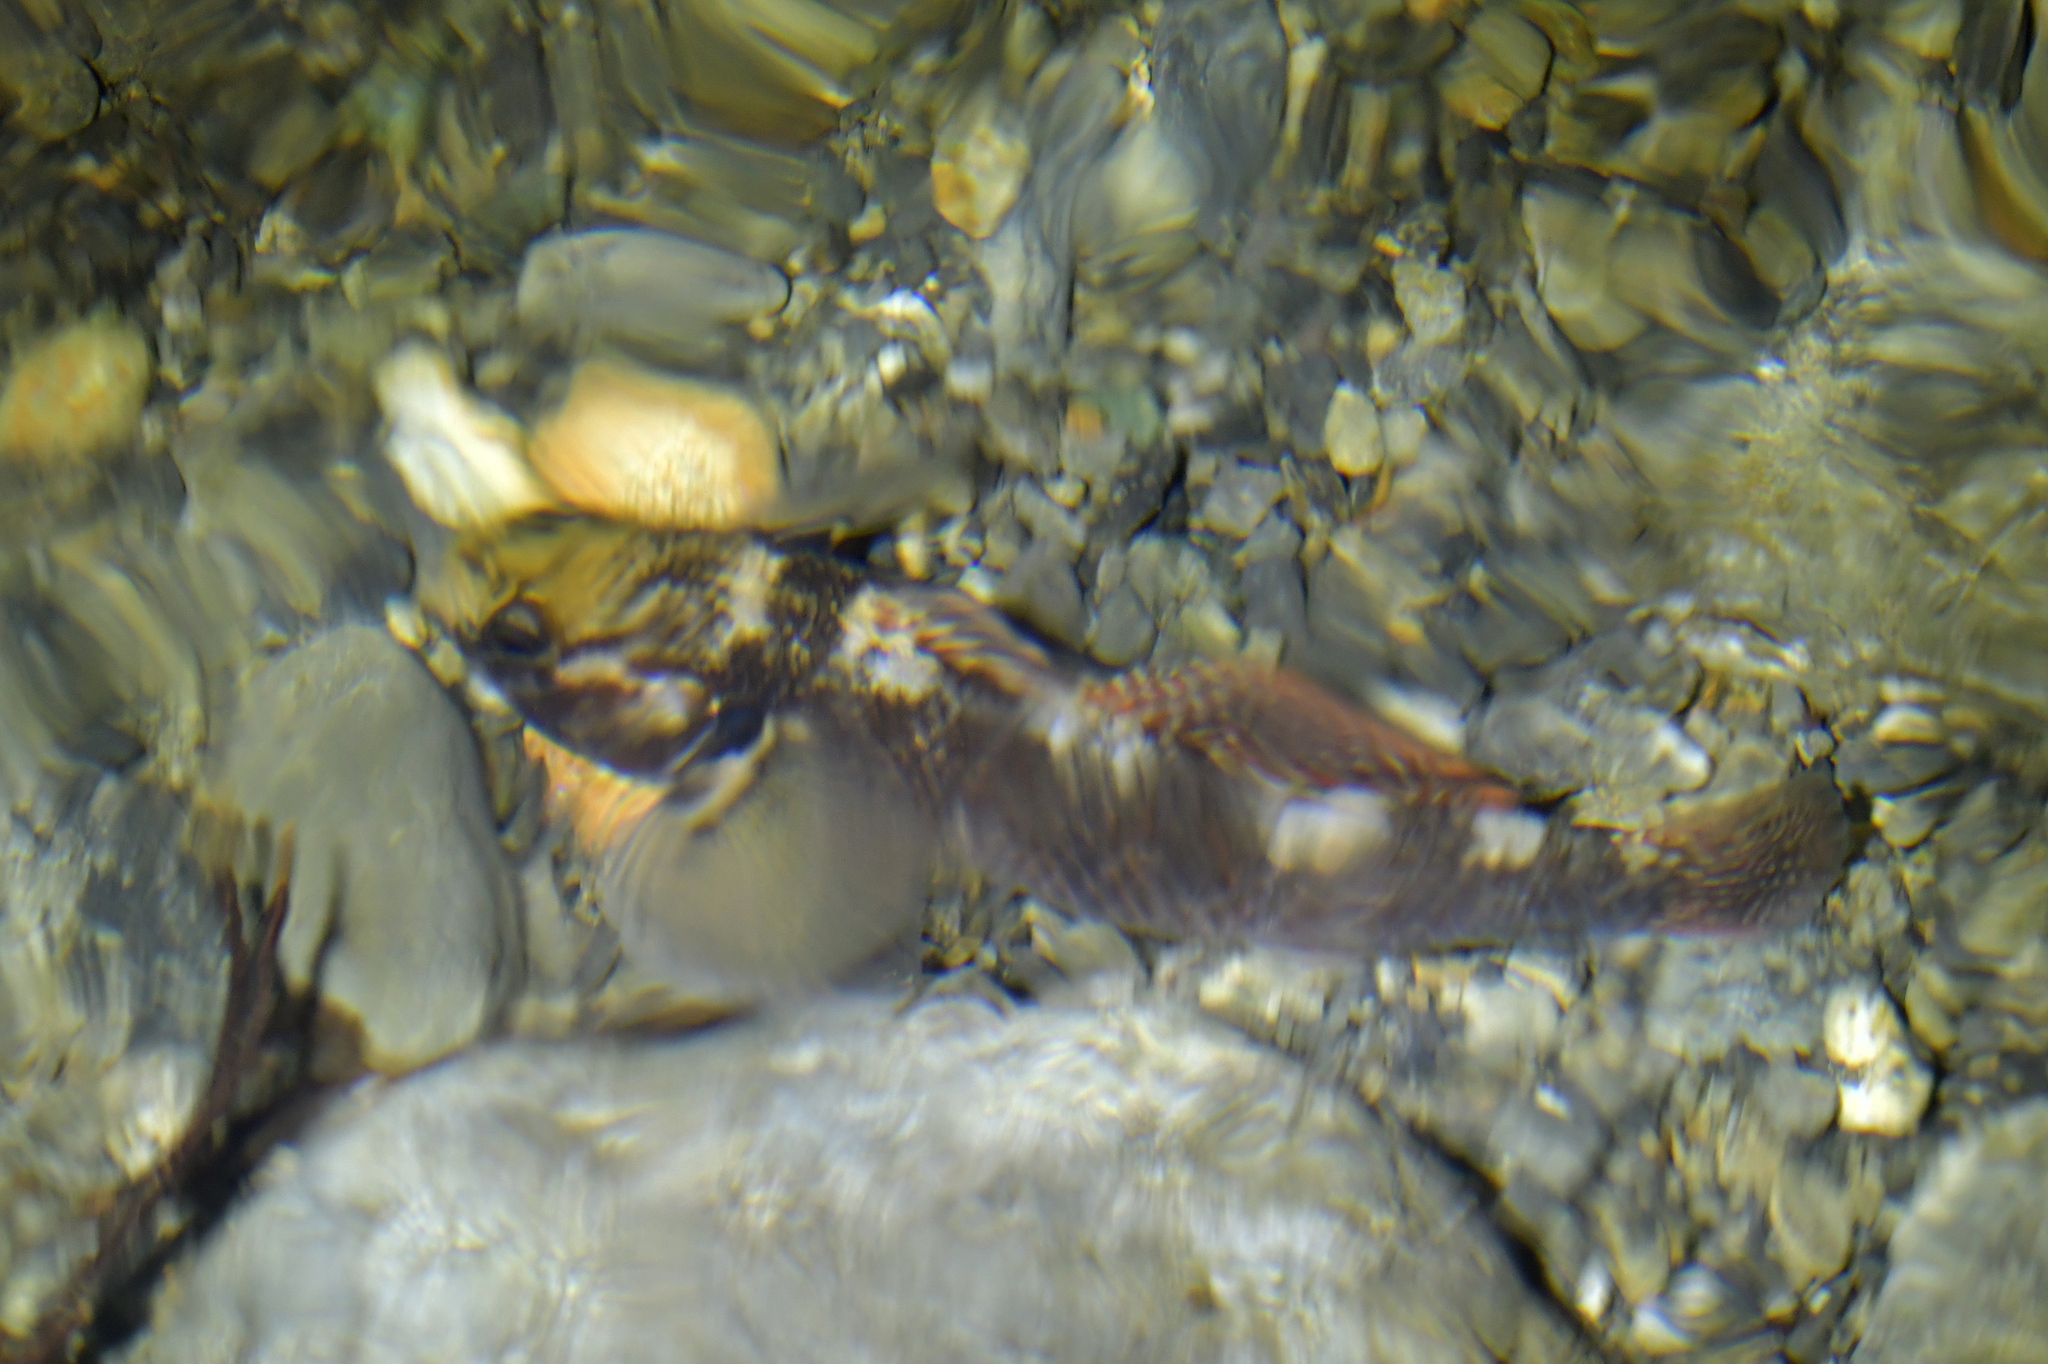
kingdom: Animalia
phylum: Chordata
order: Perciformes
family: Eleotridae
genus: Gobiomorphus
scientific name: Gobiomorphus huttoni
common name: Redfin bully
